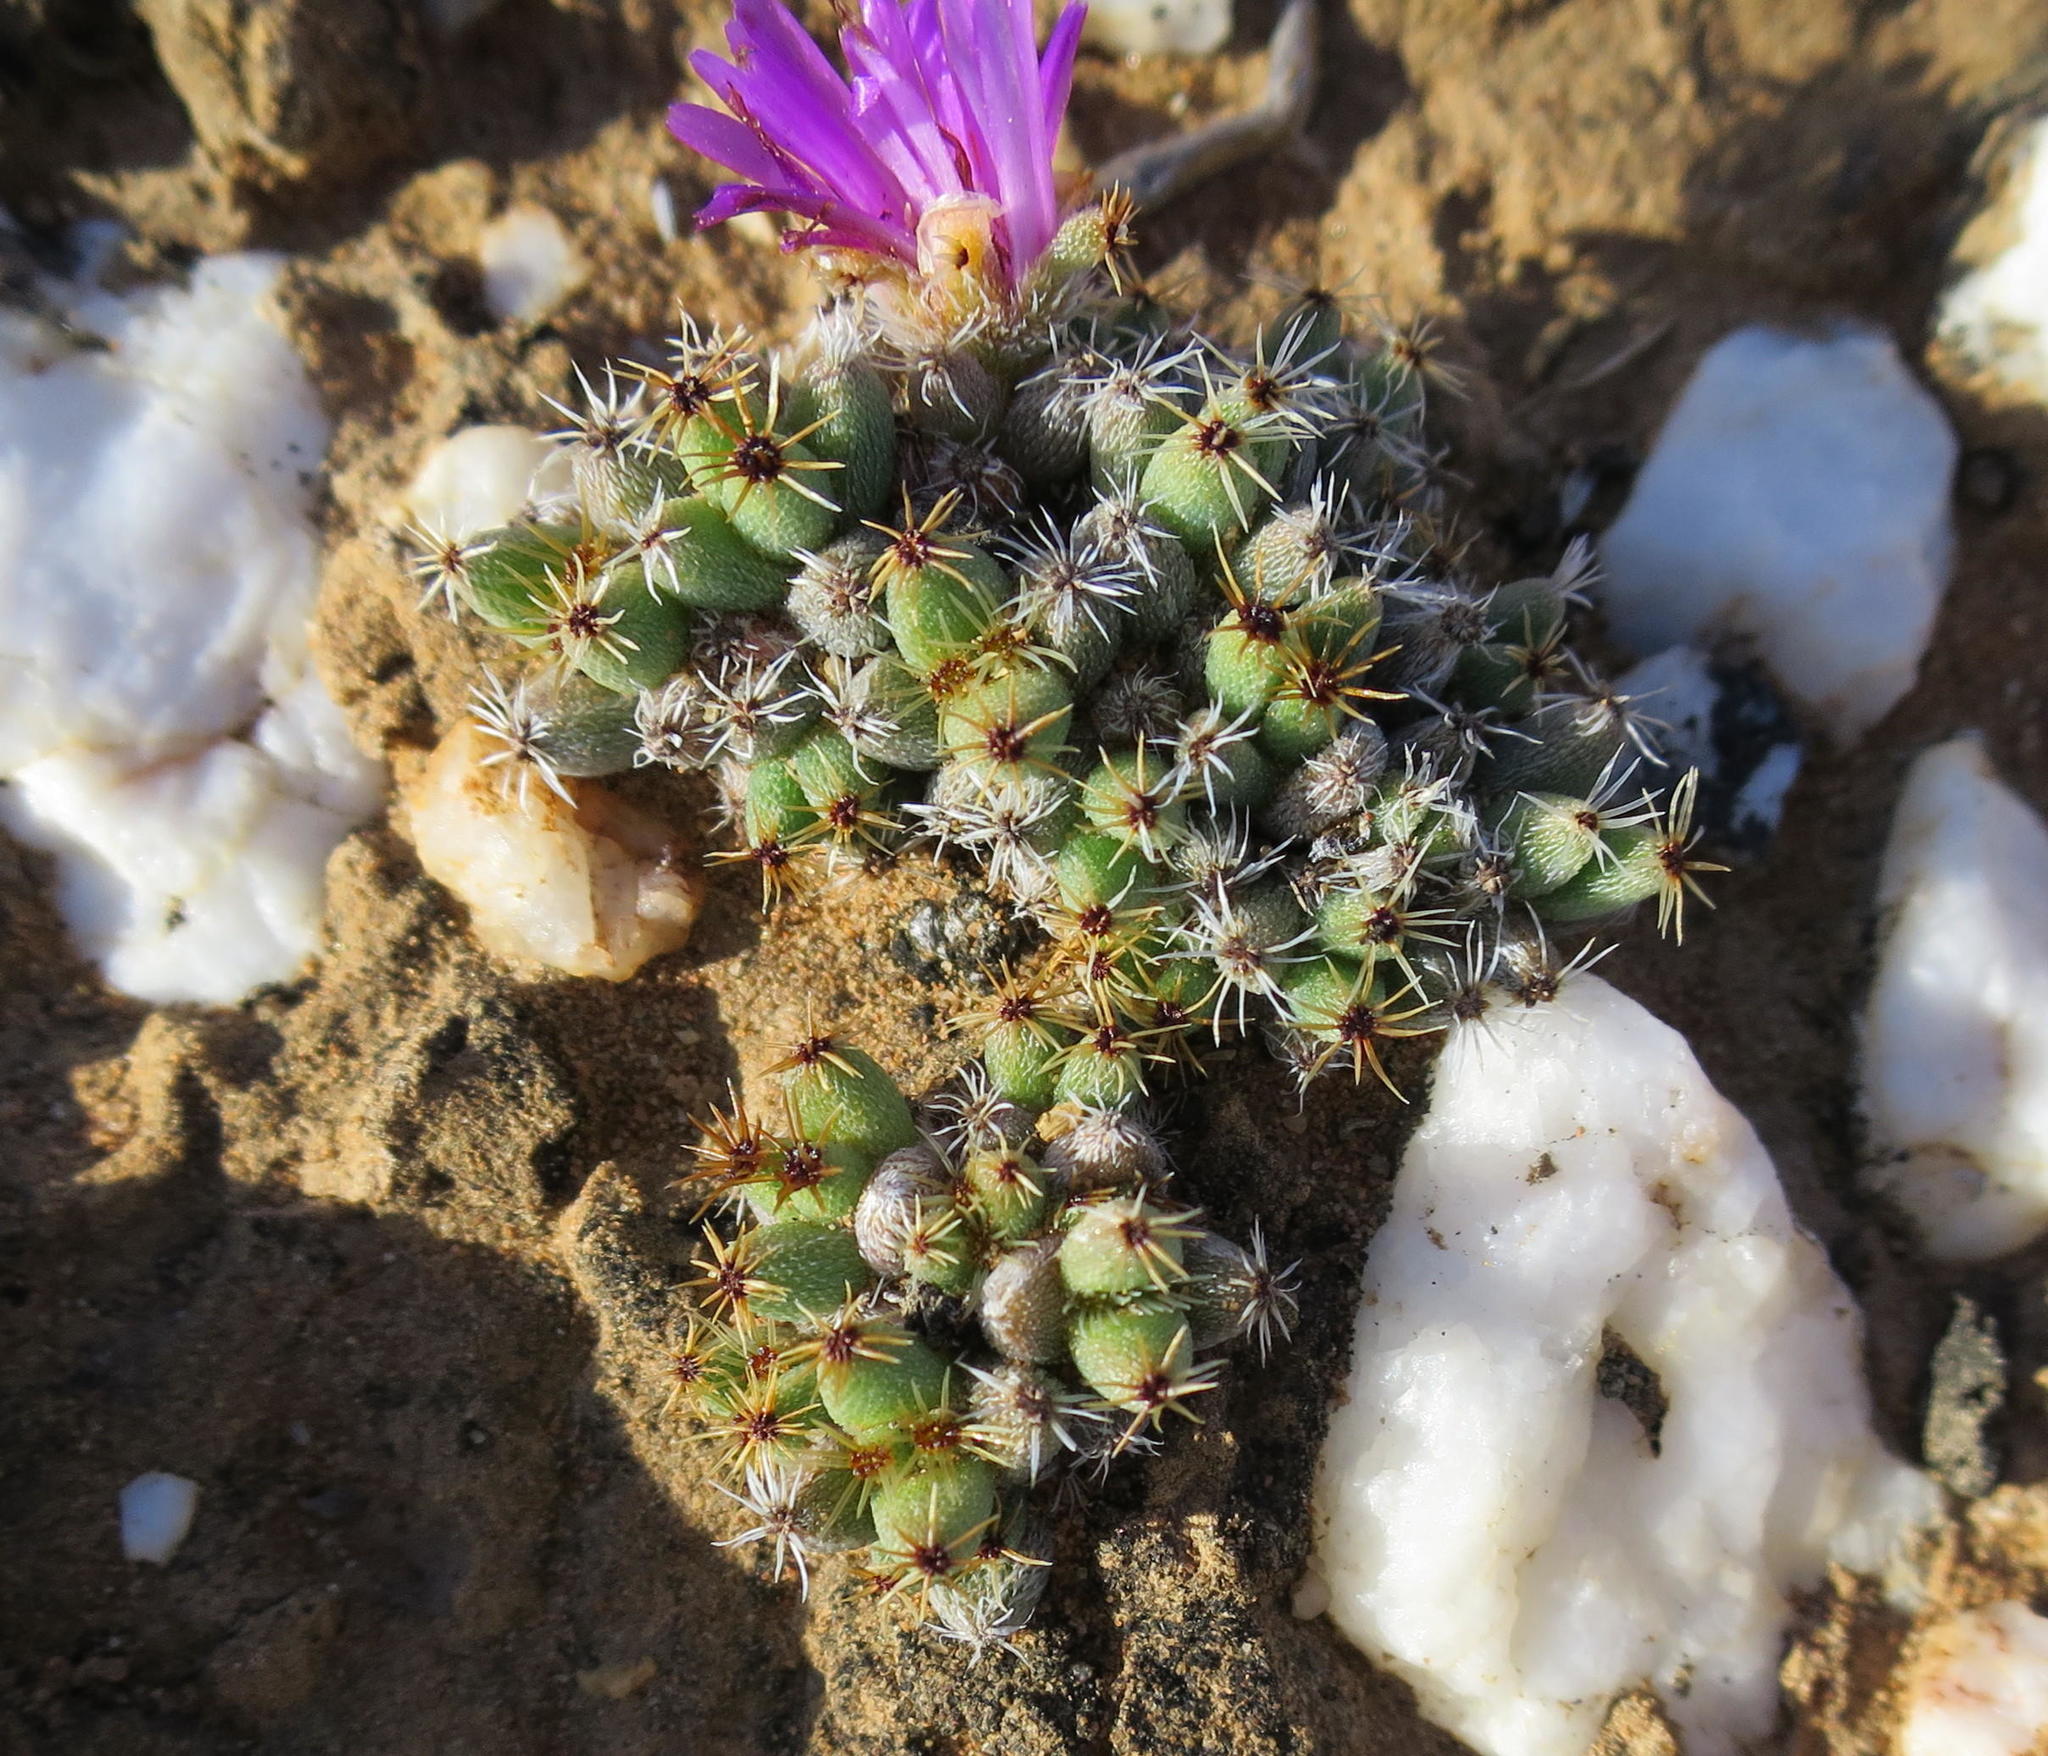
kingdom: Plantae
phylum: Tracheophyta
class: Magnoliopsida
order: Caryophyllales
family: Aizoaceae
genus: Trichodiadema
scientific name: Trichodiadema marlothii
